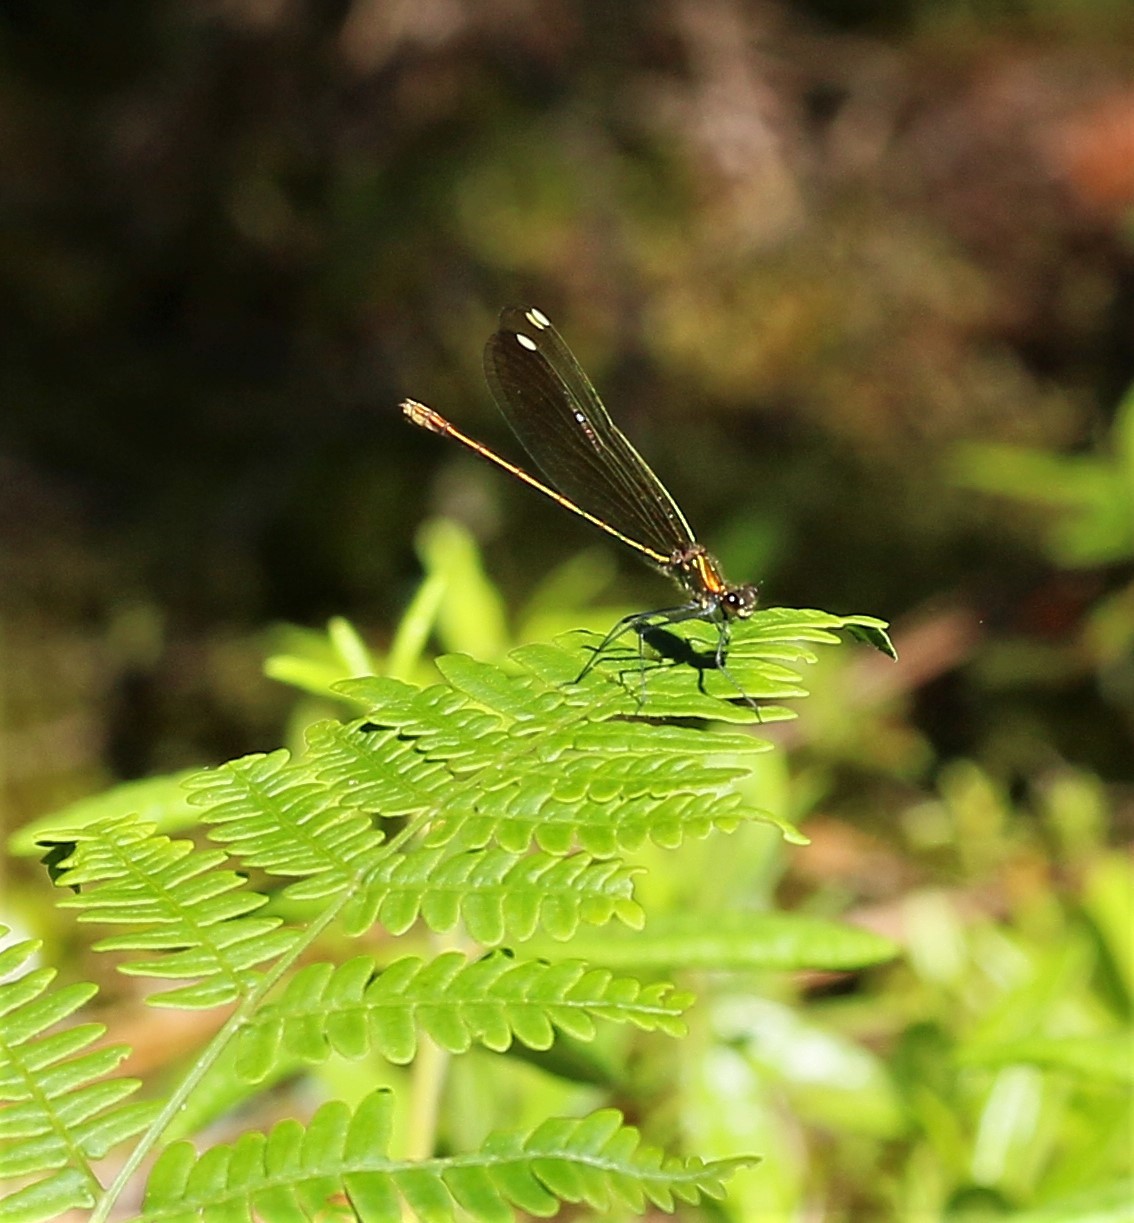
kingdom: Animalia
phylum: Arthropoda
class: Insecta
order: Odonata
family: Calopterygidae
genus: Calopteryx
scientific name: Calopteryx aequabilis
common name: River jewelwing
